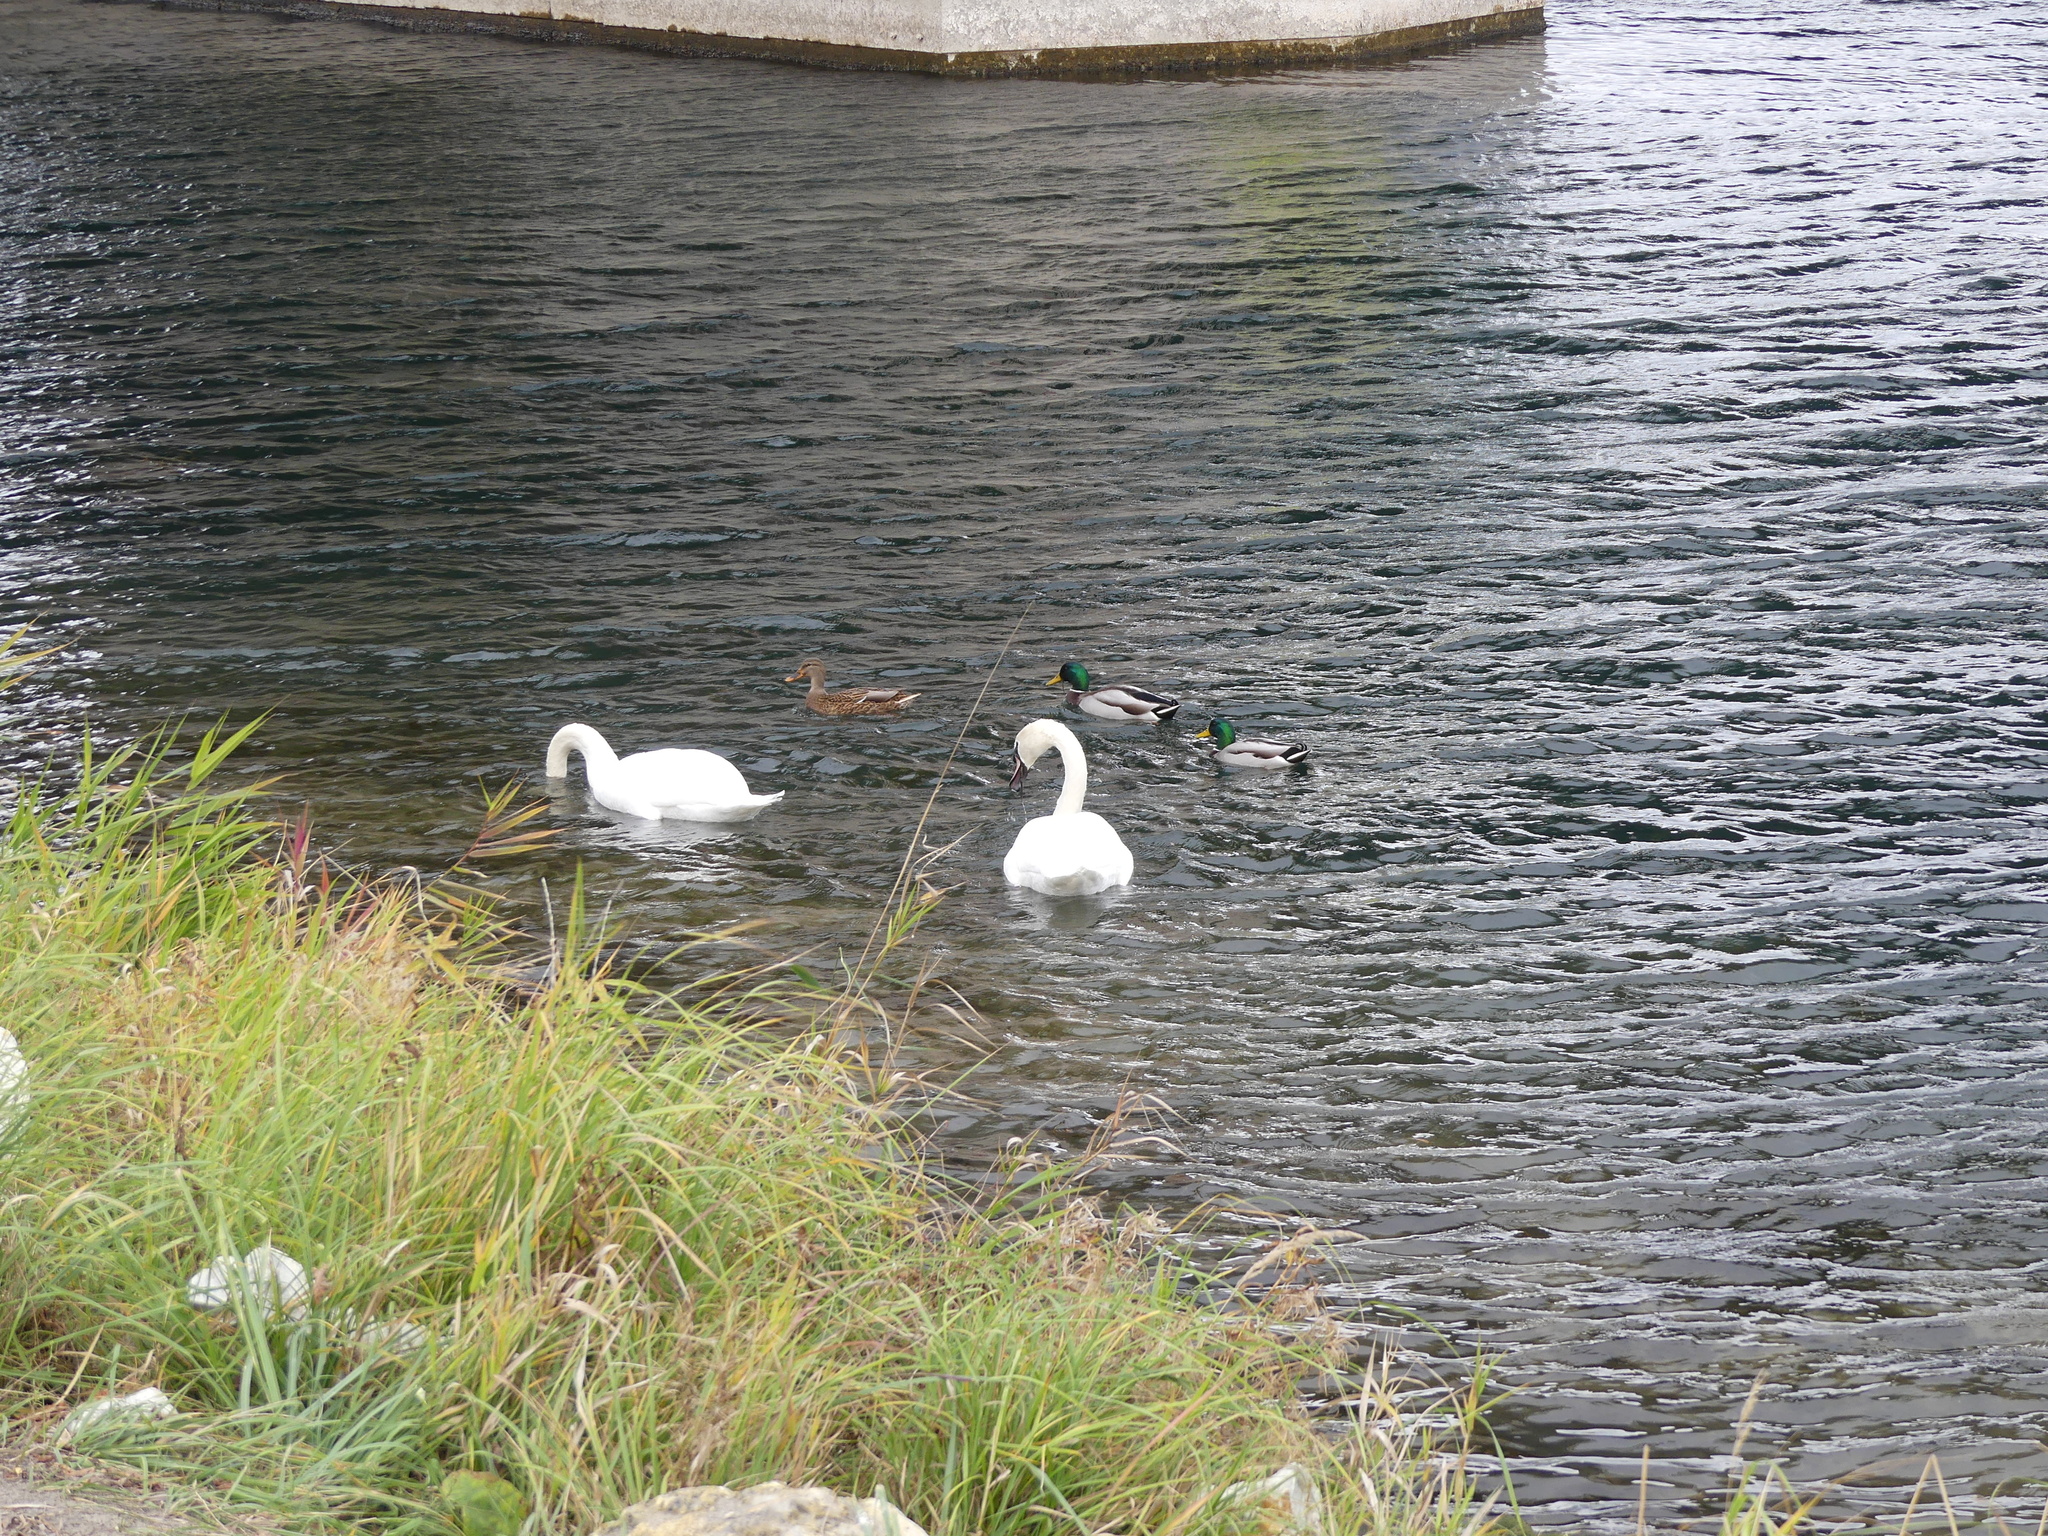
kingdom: Animalia
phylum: Chordata
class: Aves
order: Passeriformes
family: Corvidae
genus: Pica
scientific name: Pica pica
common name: Eurasian magpie
